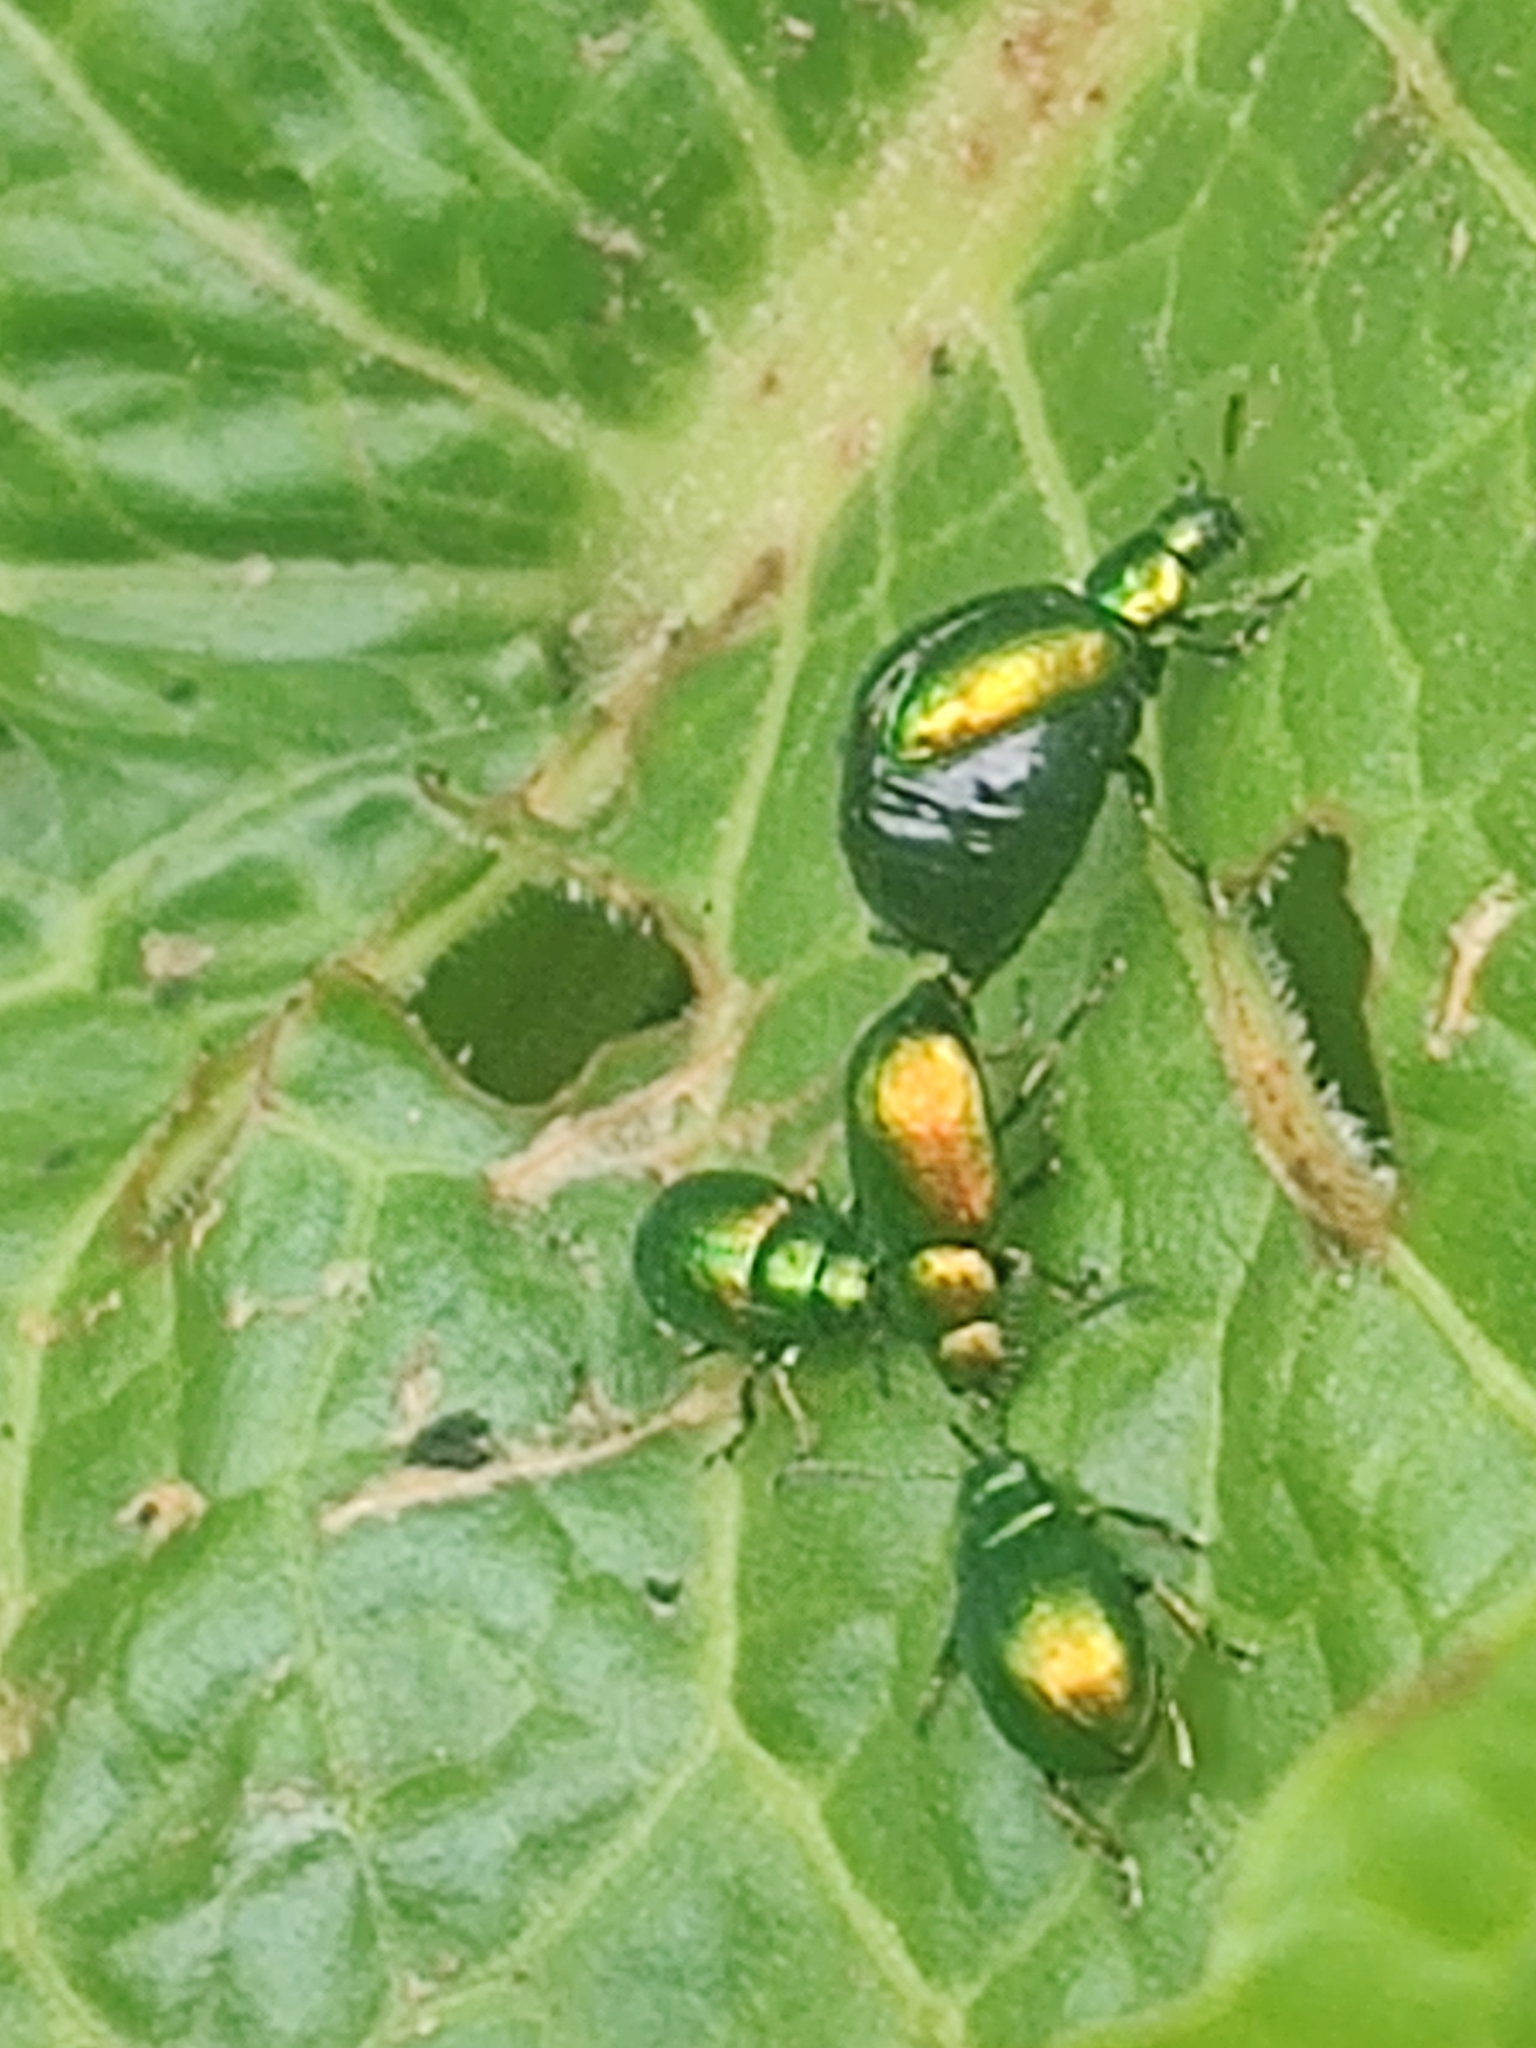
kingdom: Animalia
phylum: Arthropoda
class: Insecta
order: Coleoptera
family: Chrysomelidae
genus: Gastrophysa
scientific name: Gastrophysa viridula
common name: Green dock beetle
